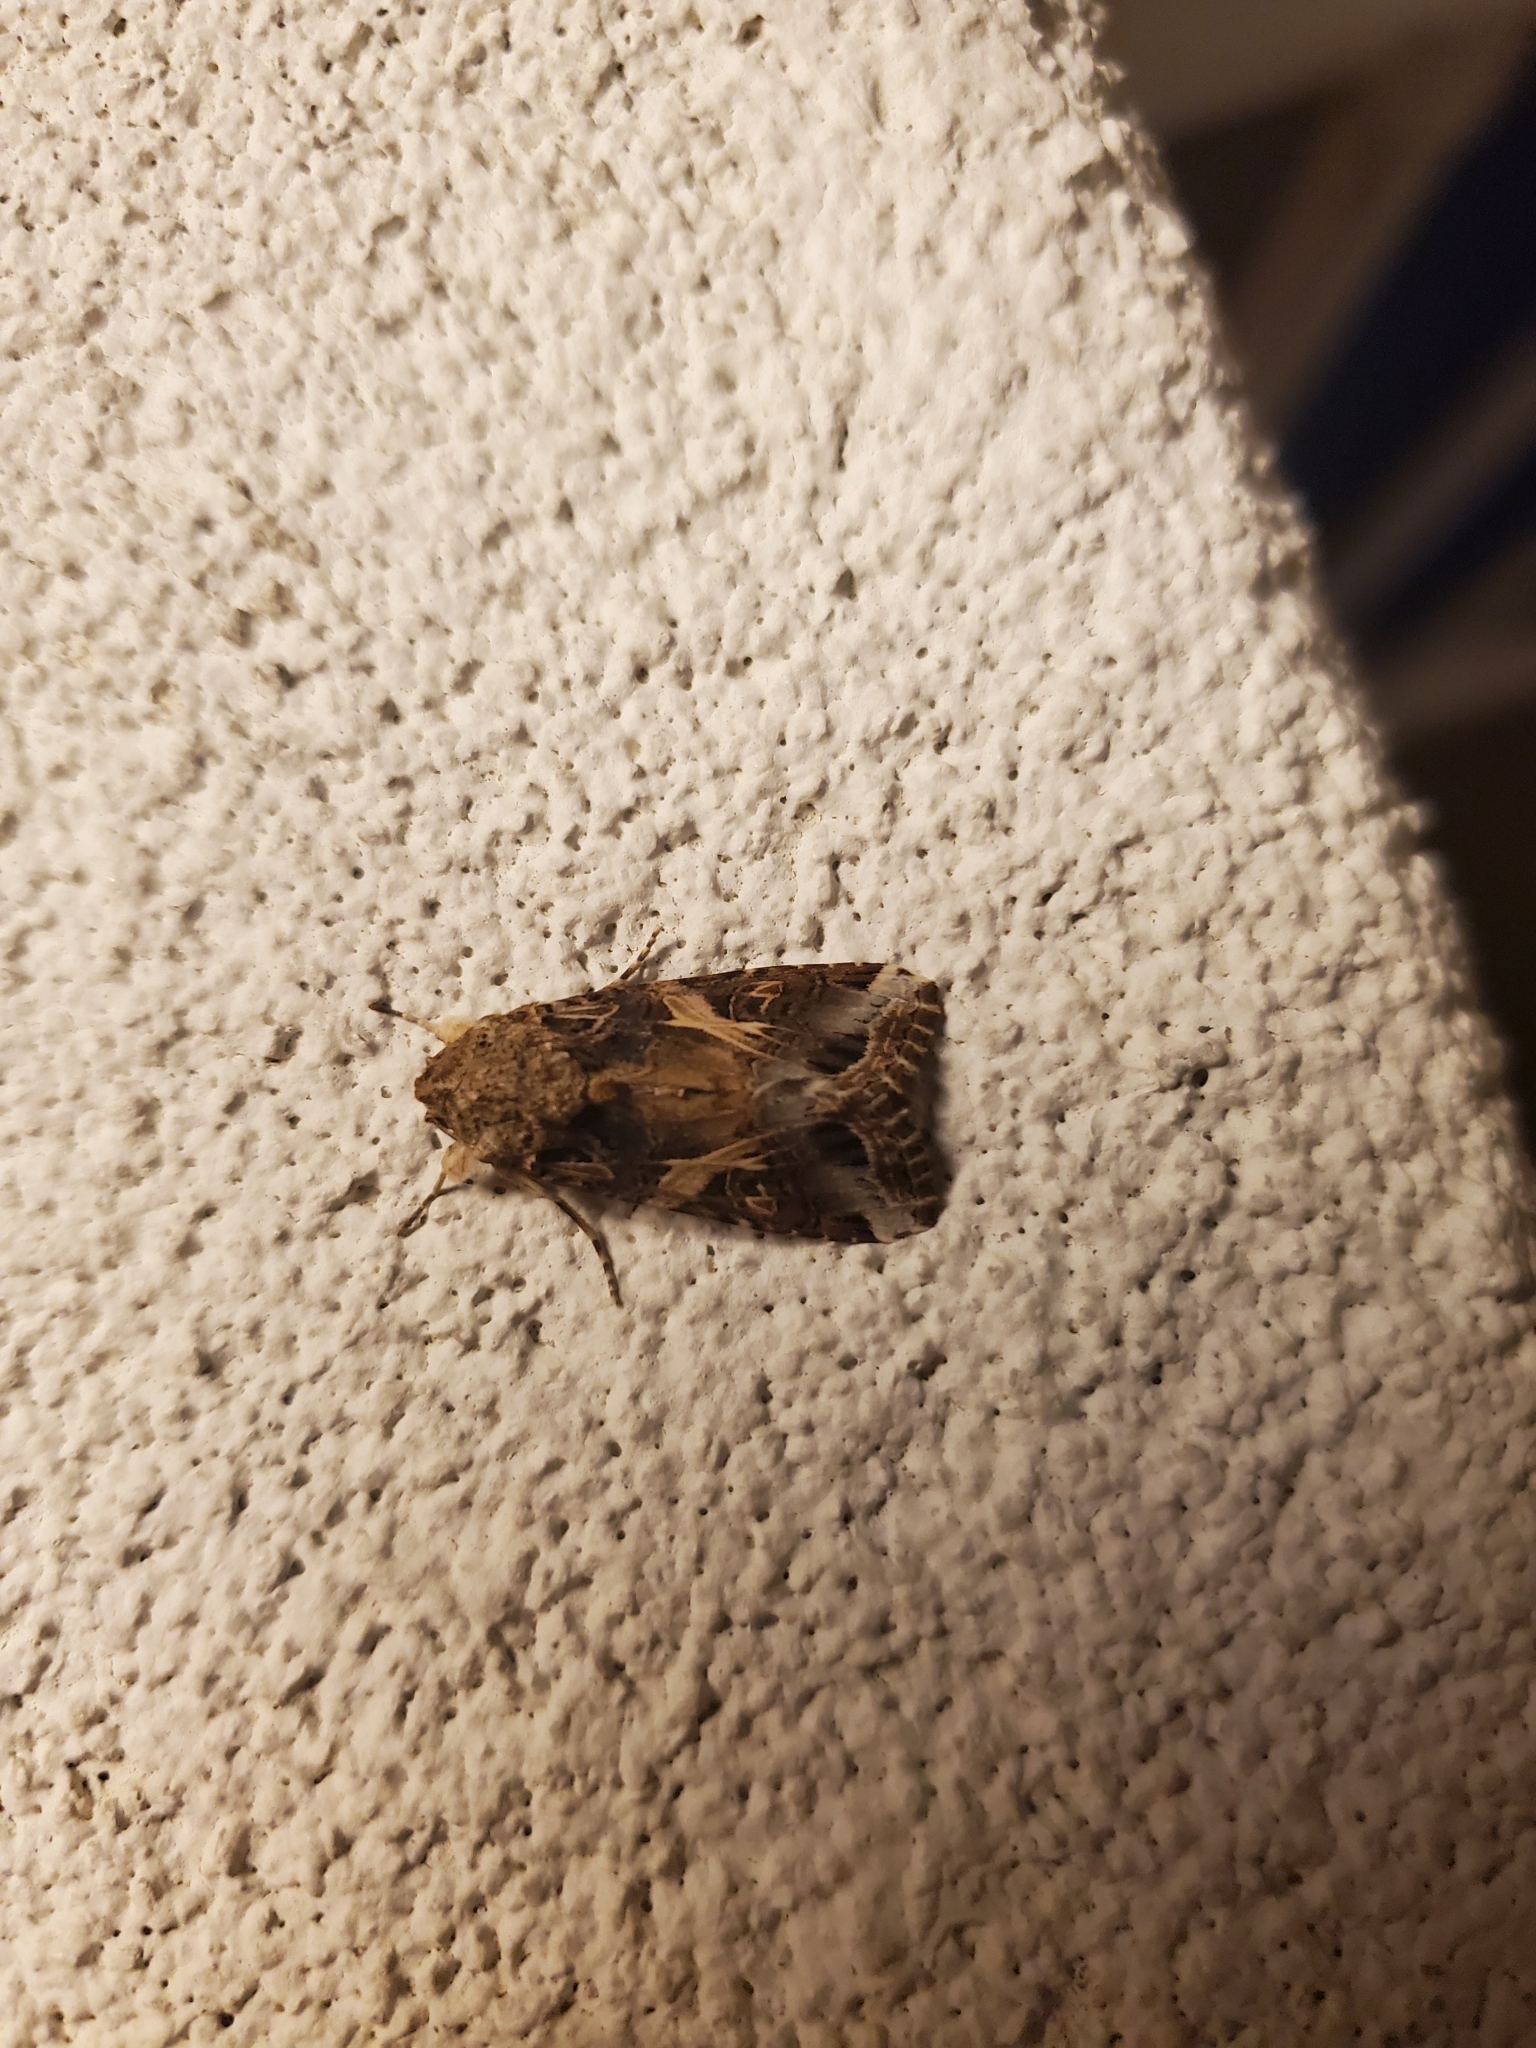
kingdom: Animalia
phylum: Arthropoda
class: Insecta
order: Lepidoptera
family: Noctuidae
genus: Spodoptera
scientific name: Spodoptera ornithogalli
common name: Yellow-striped armyworm
